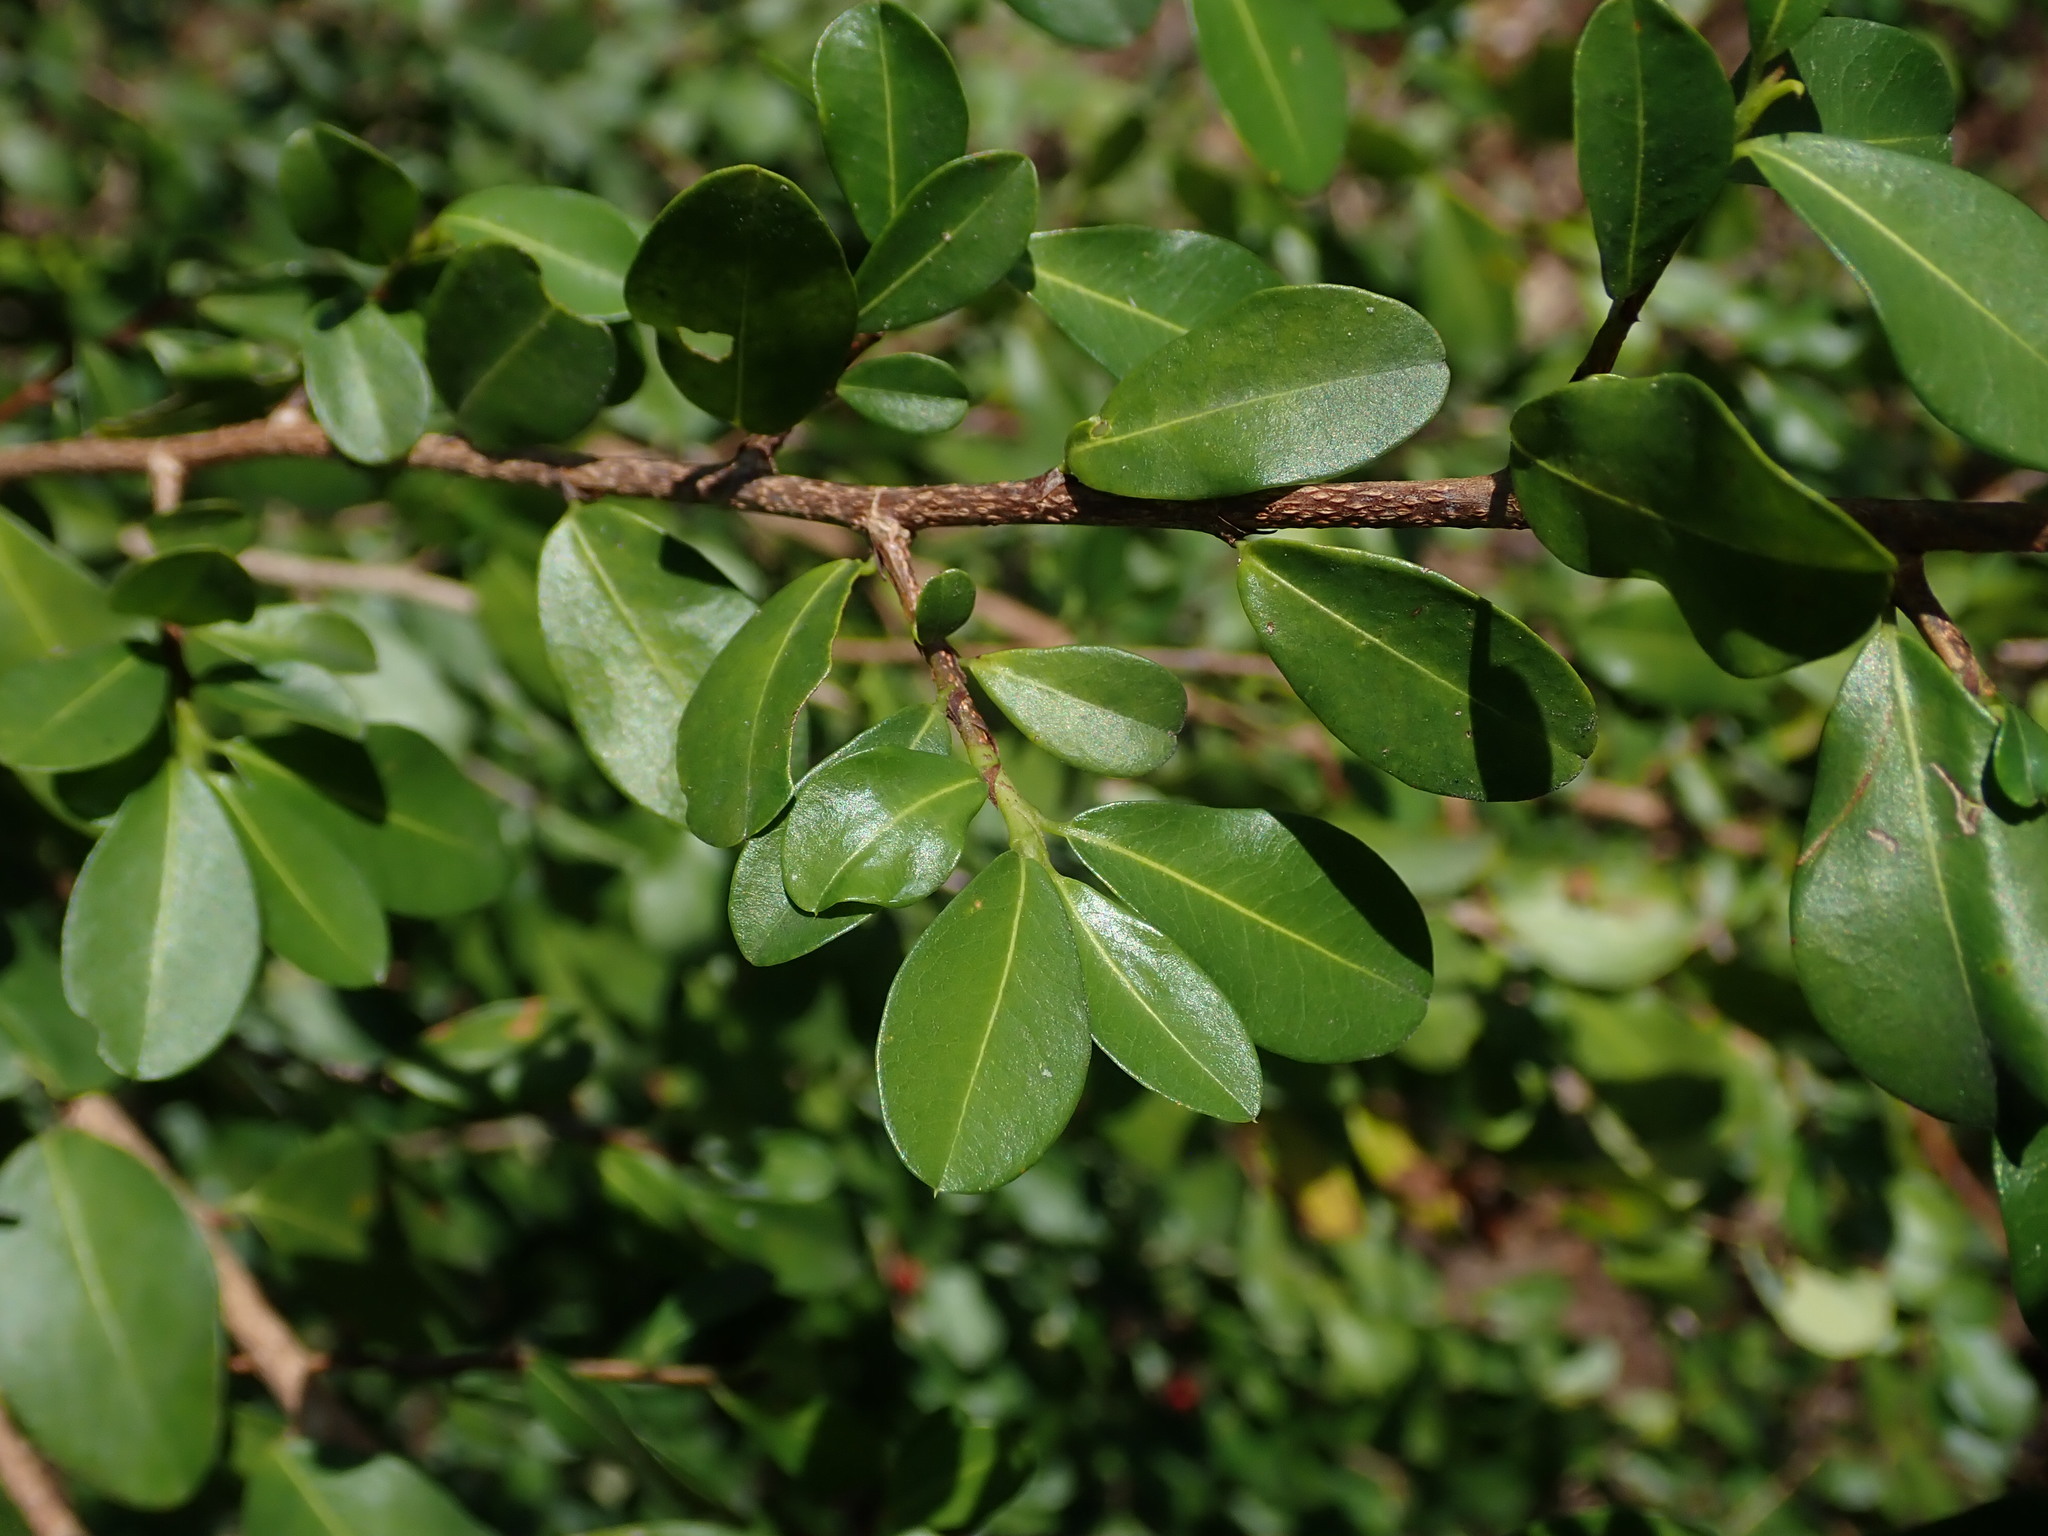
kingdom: Plantae
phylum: Tracheophyta
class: Magnoliopsida
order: Malpighiales
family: Erythroxylaceae
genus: Erythroxylum
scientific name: Erythroxylum brevipes
